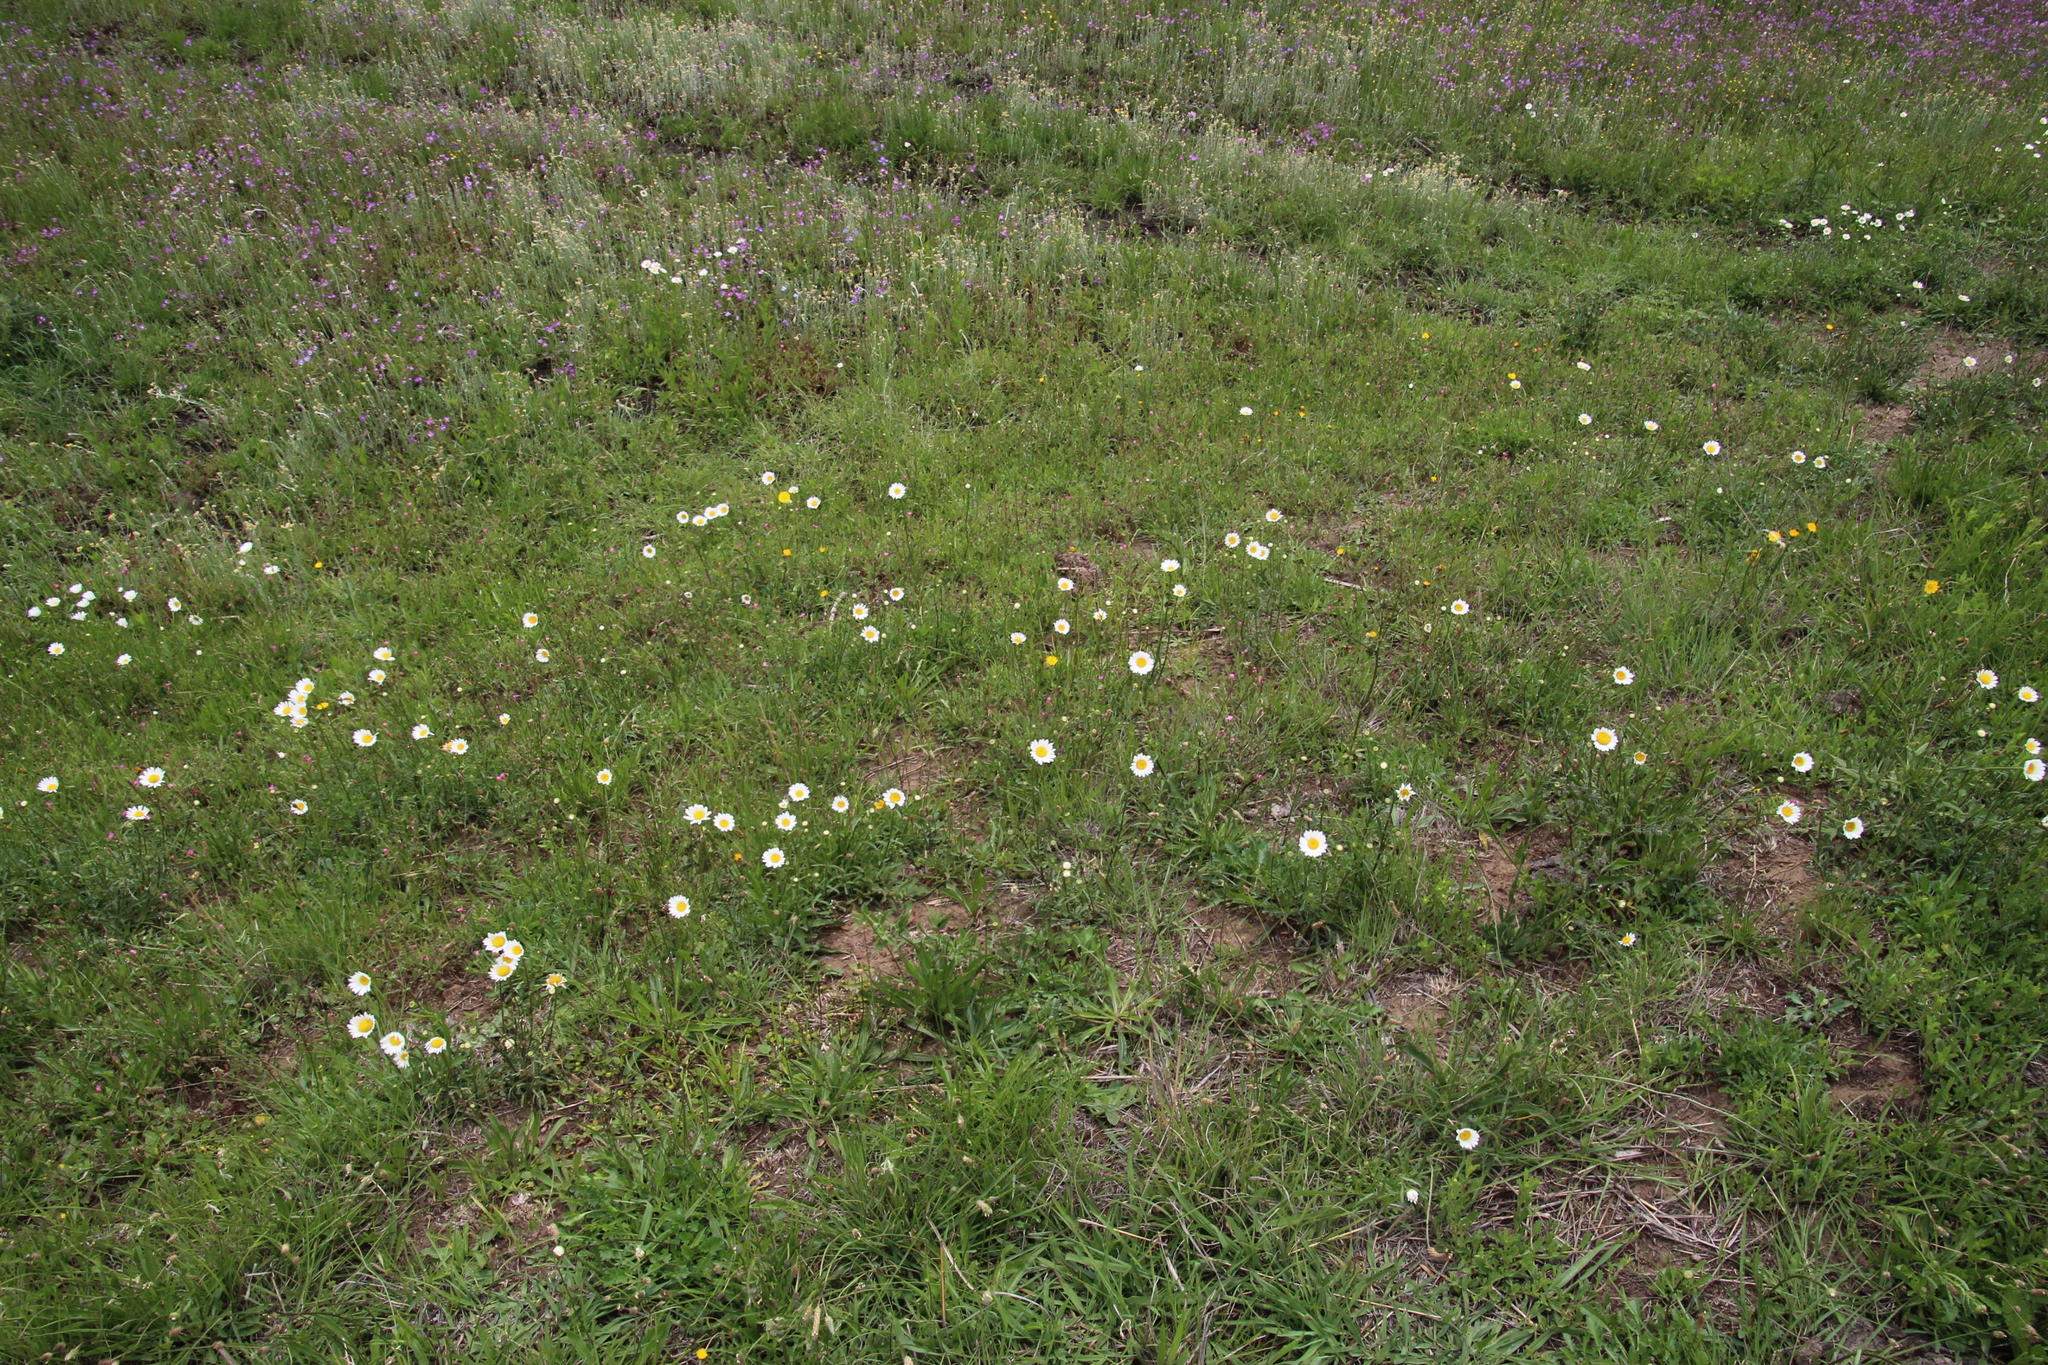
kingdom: Plantae
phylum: Tracheophyta
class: Magnoliopsida
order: Asterales
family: Asteraceae
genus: Gazania
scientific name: Gazania krebsiana
